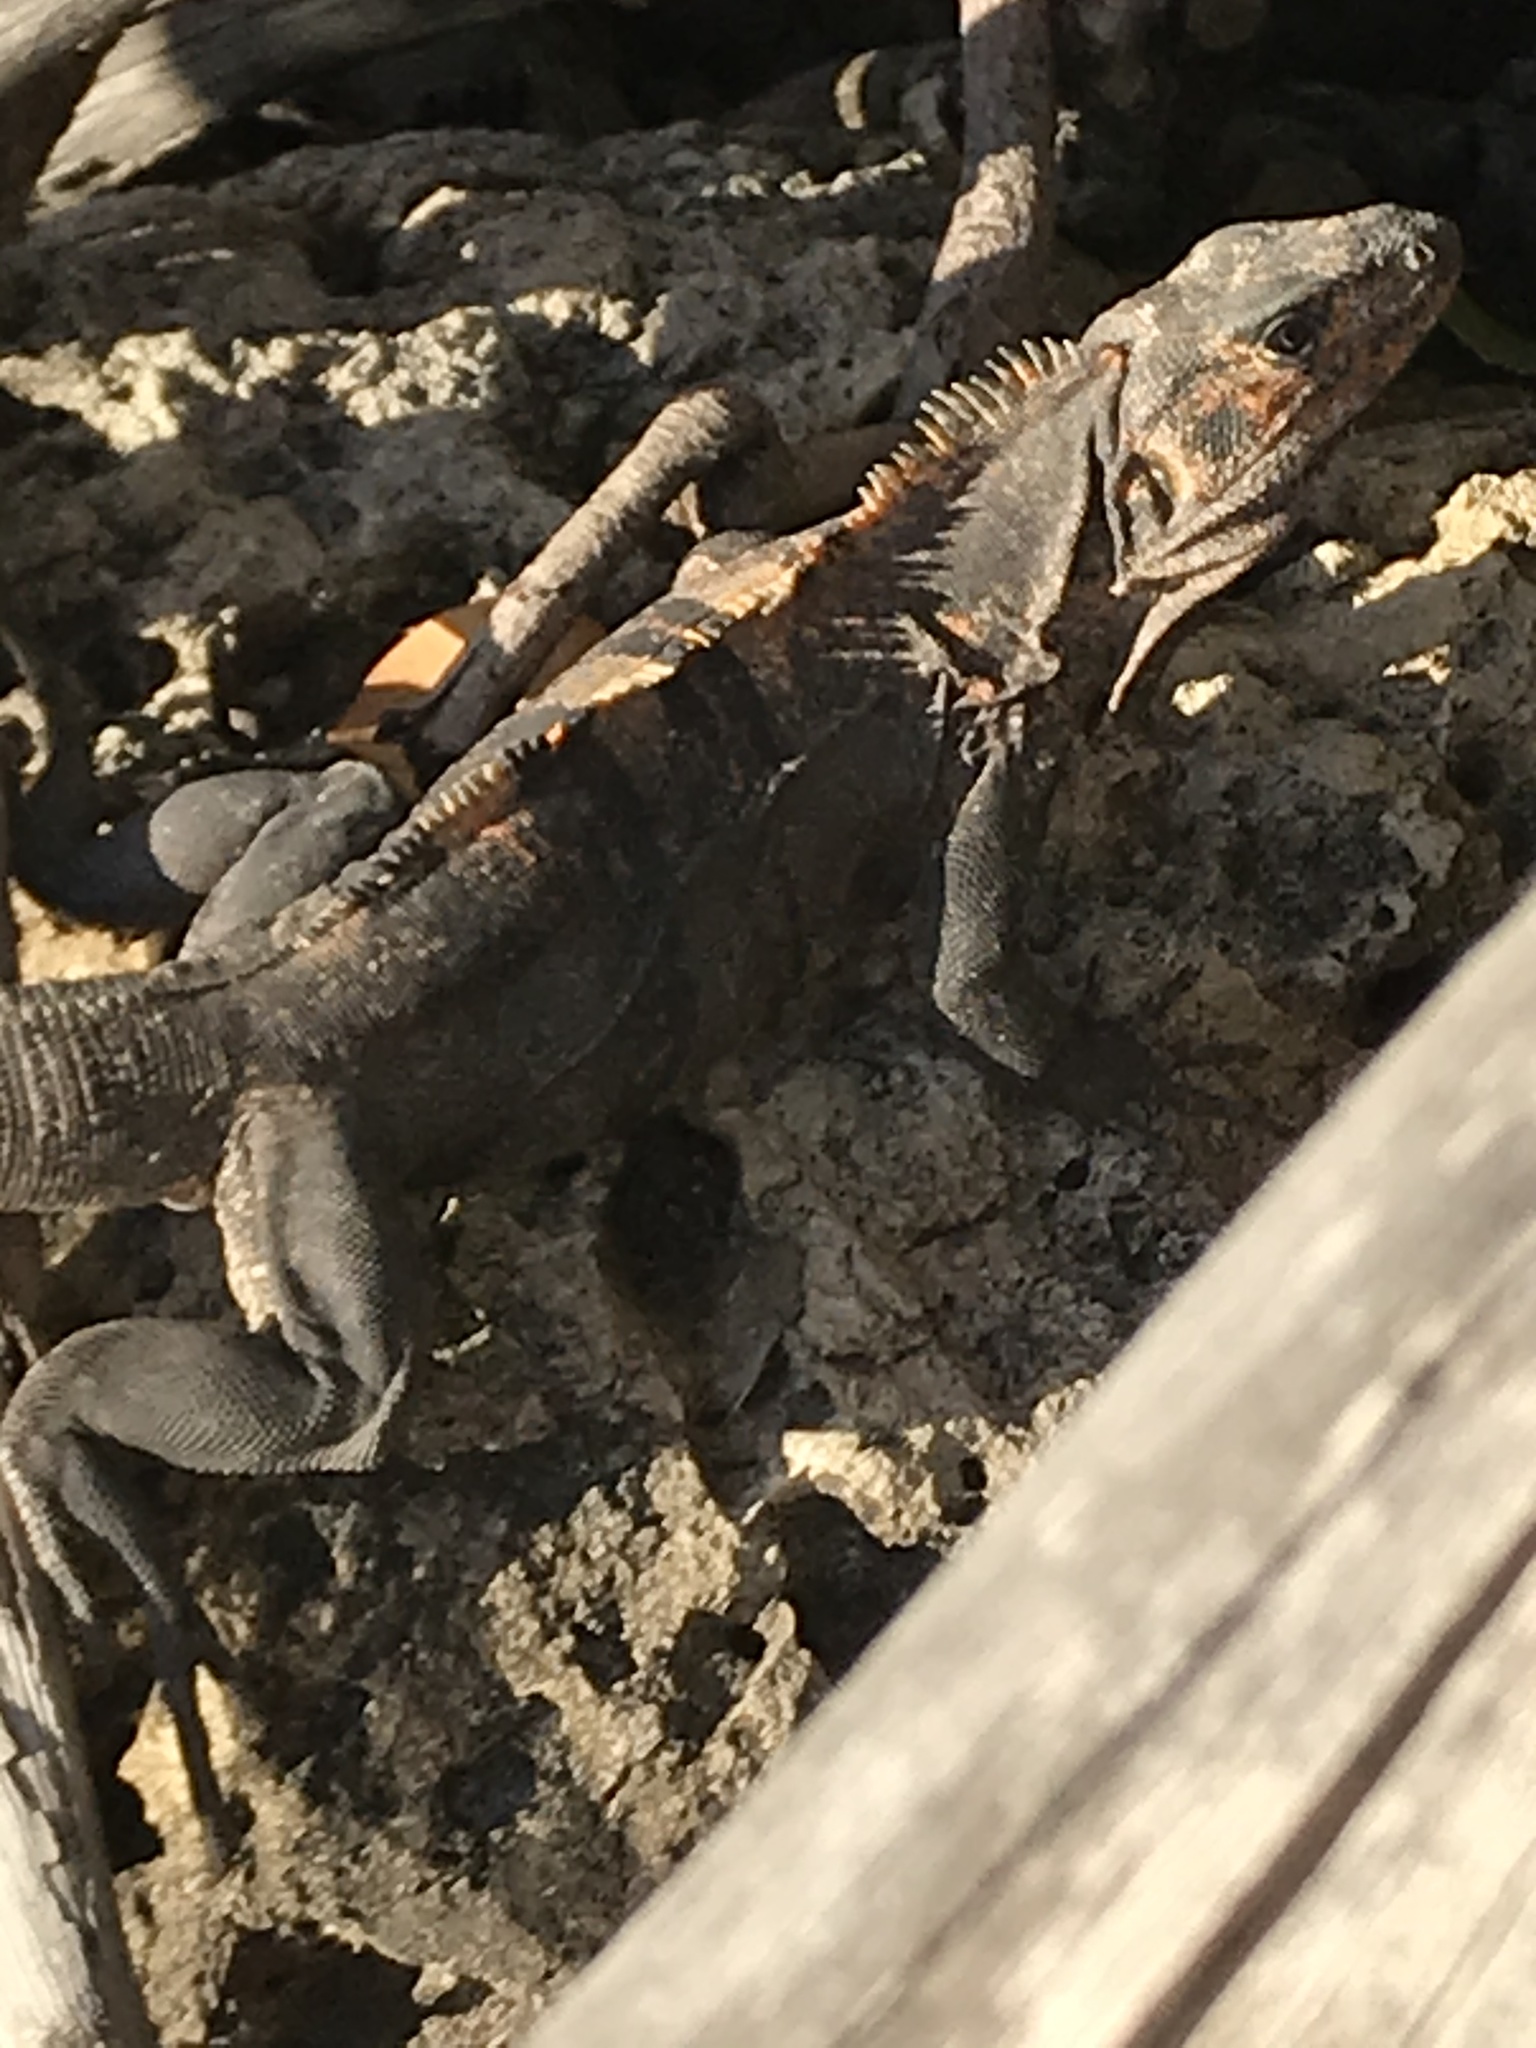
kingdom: Animalia
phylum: Chordata
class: Squamata
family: Iguanidae
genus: Ctenosaura
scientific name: Ctenosaura similis
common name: Black spiny-tailed iguana
